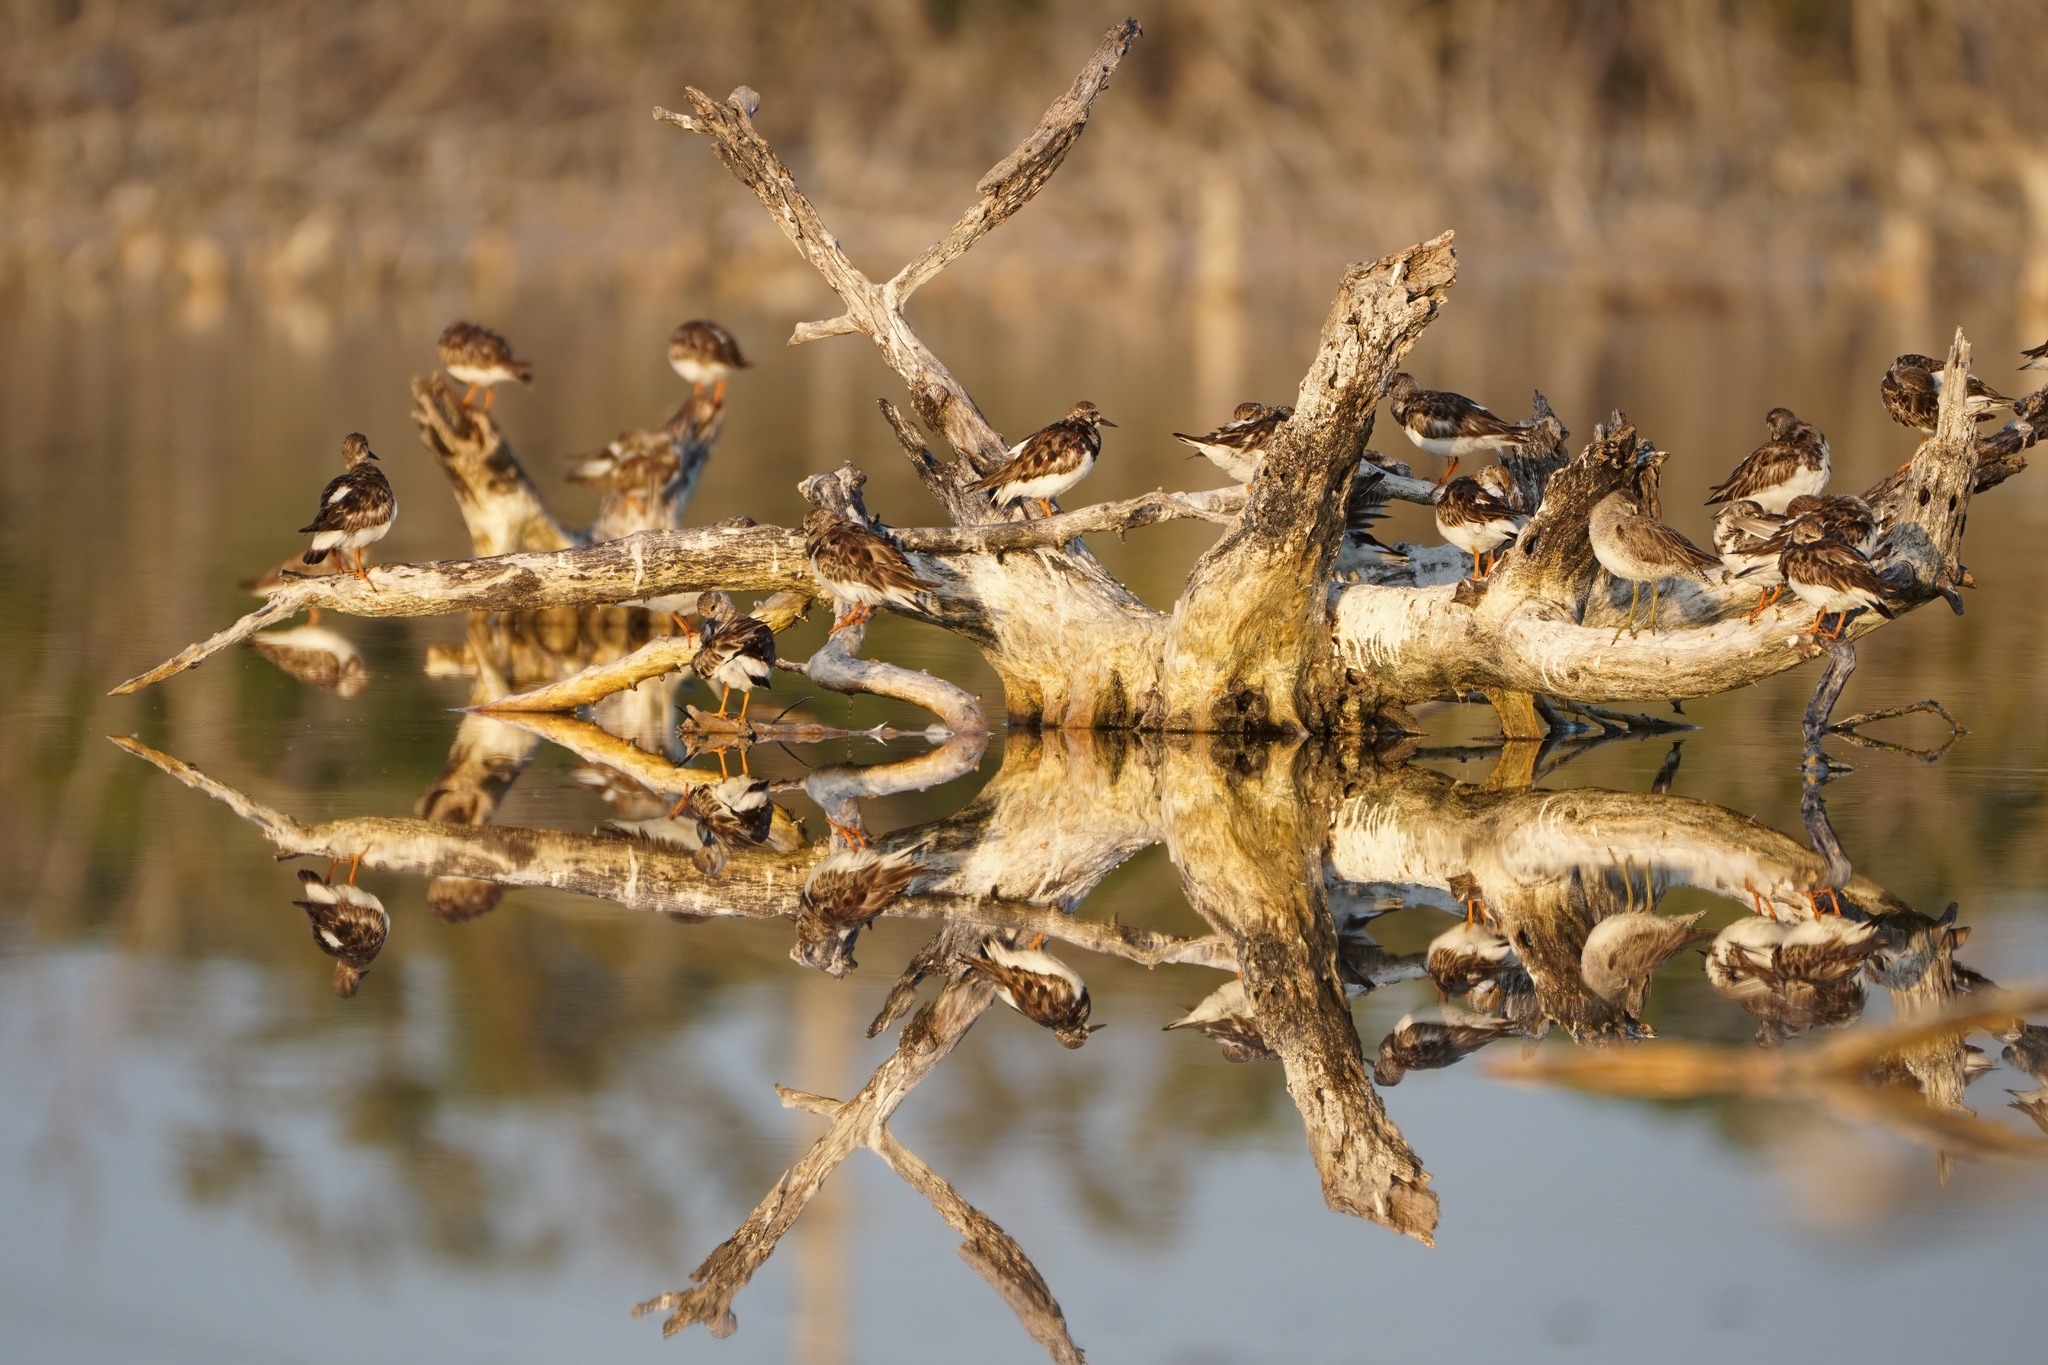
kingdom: Animalia
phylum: Chordata
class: Aves
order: Charadriiformes
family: Scolopacidae
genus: Arenaria
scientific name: Arenaria interpres
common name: Ruddy turnstone
